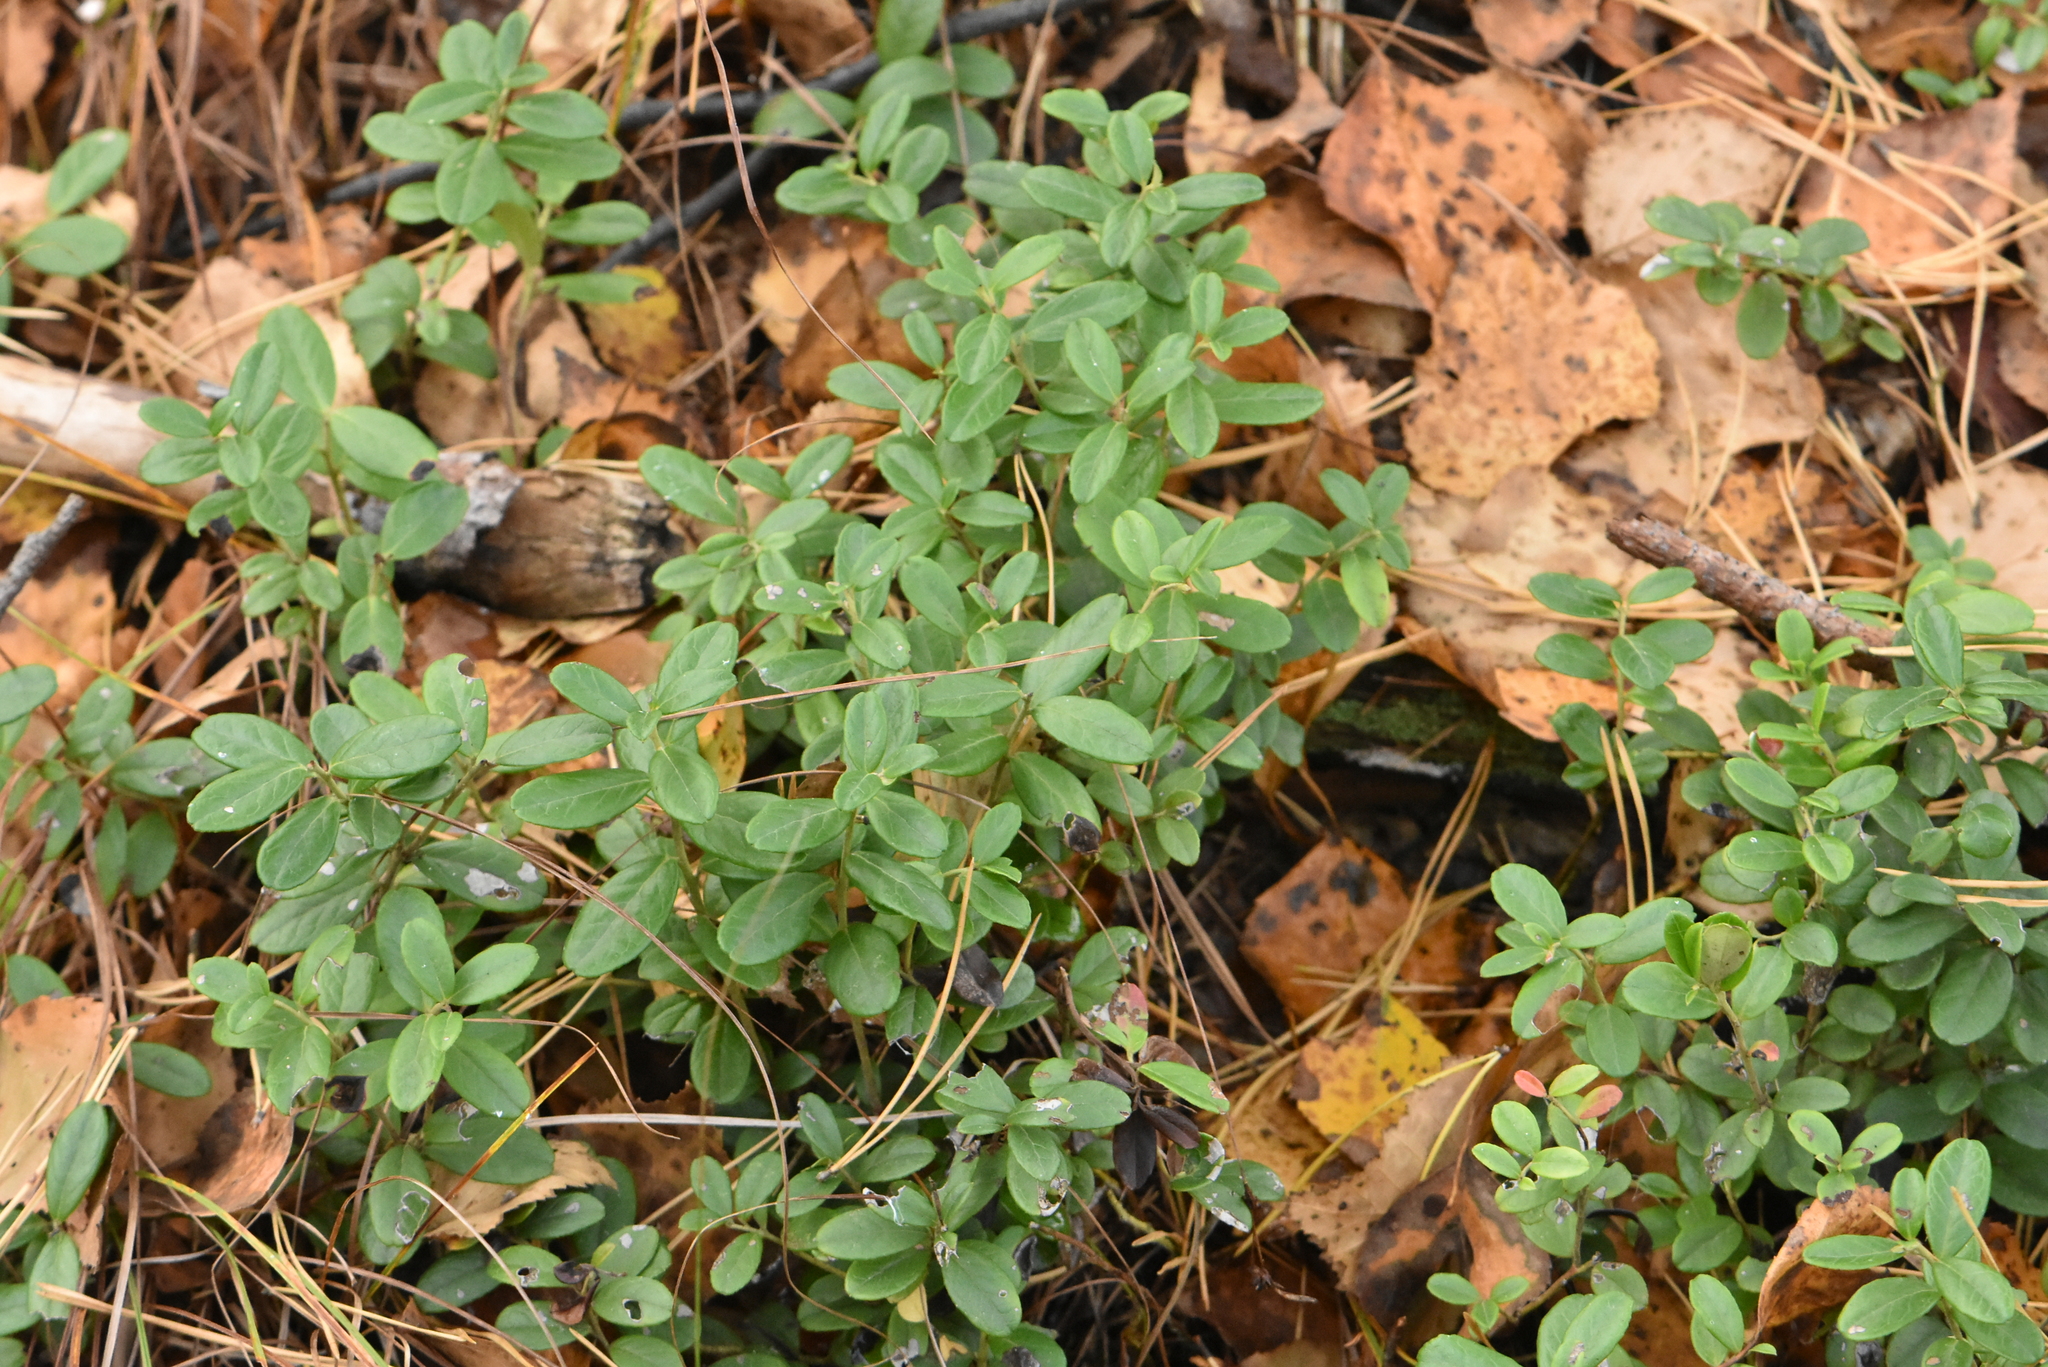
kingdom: Plantae
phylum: Tracheophyta
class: Magnoliopsida
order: Ericales
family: Ericaceae
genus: Vaccinium
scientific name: Vaccinium vitis-idaea
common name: Cowberry
